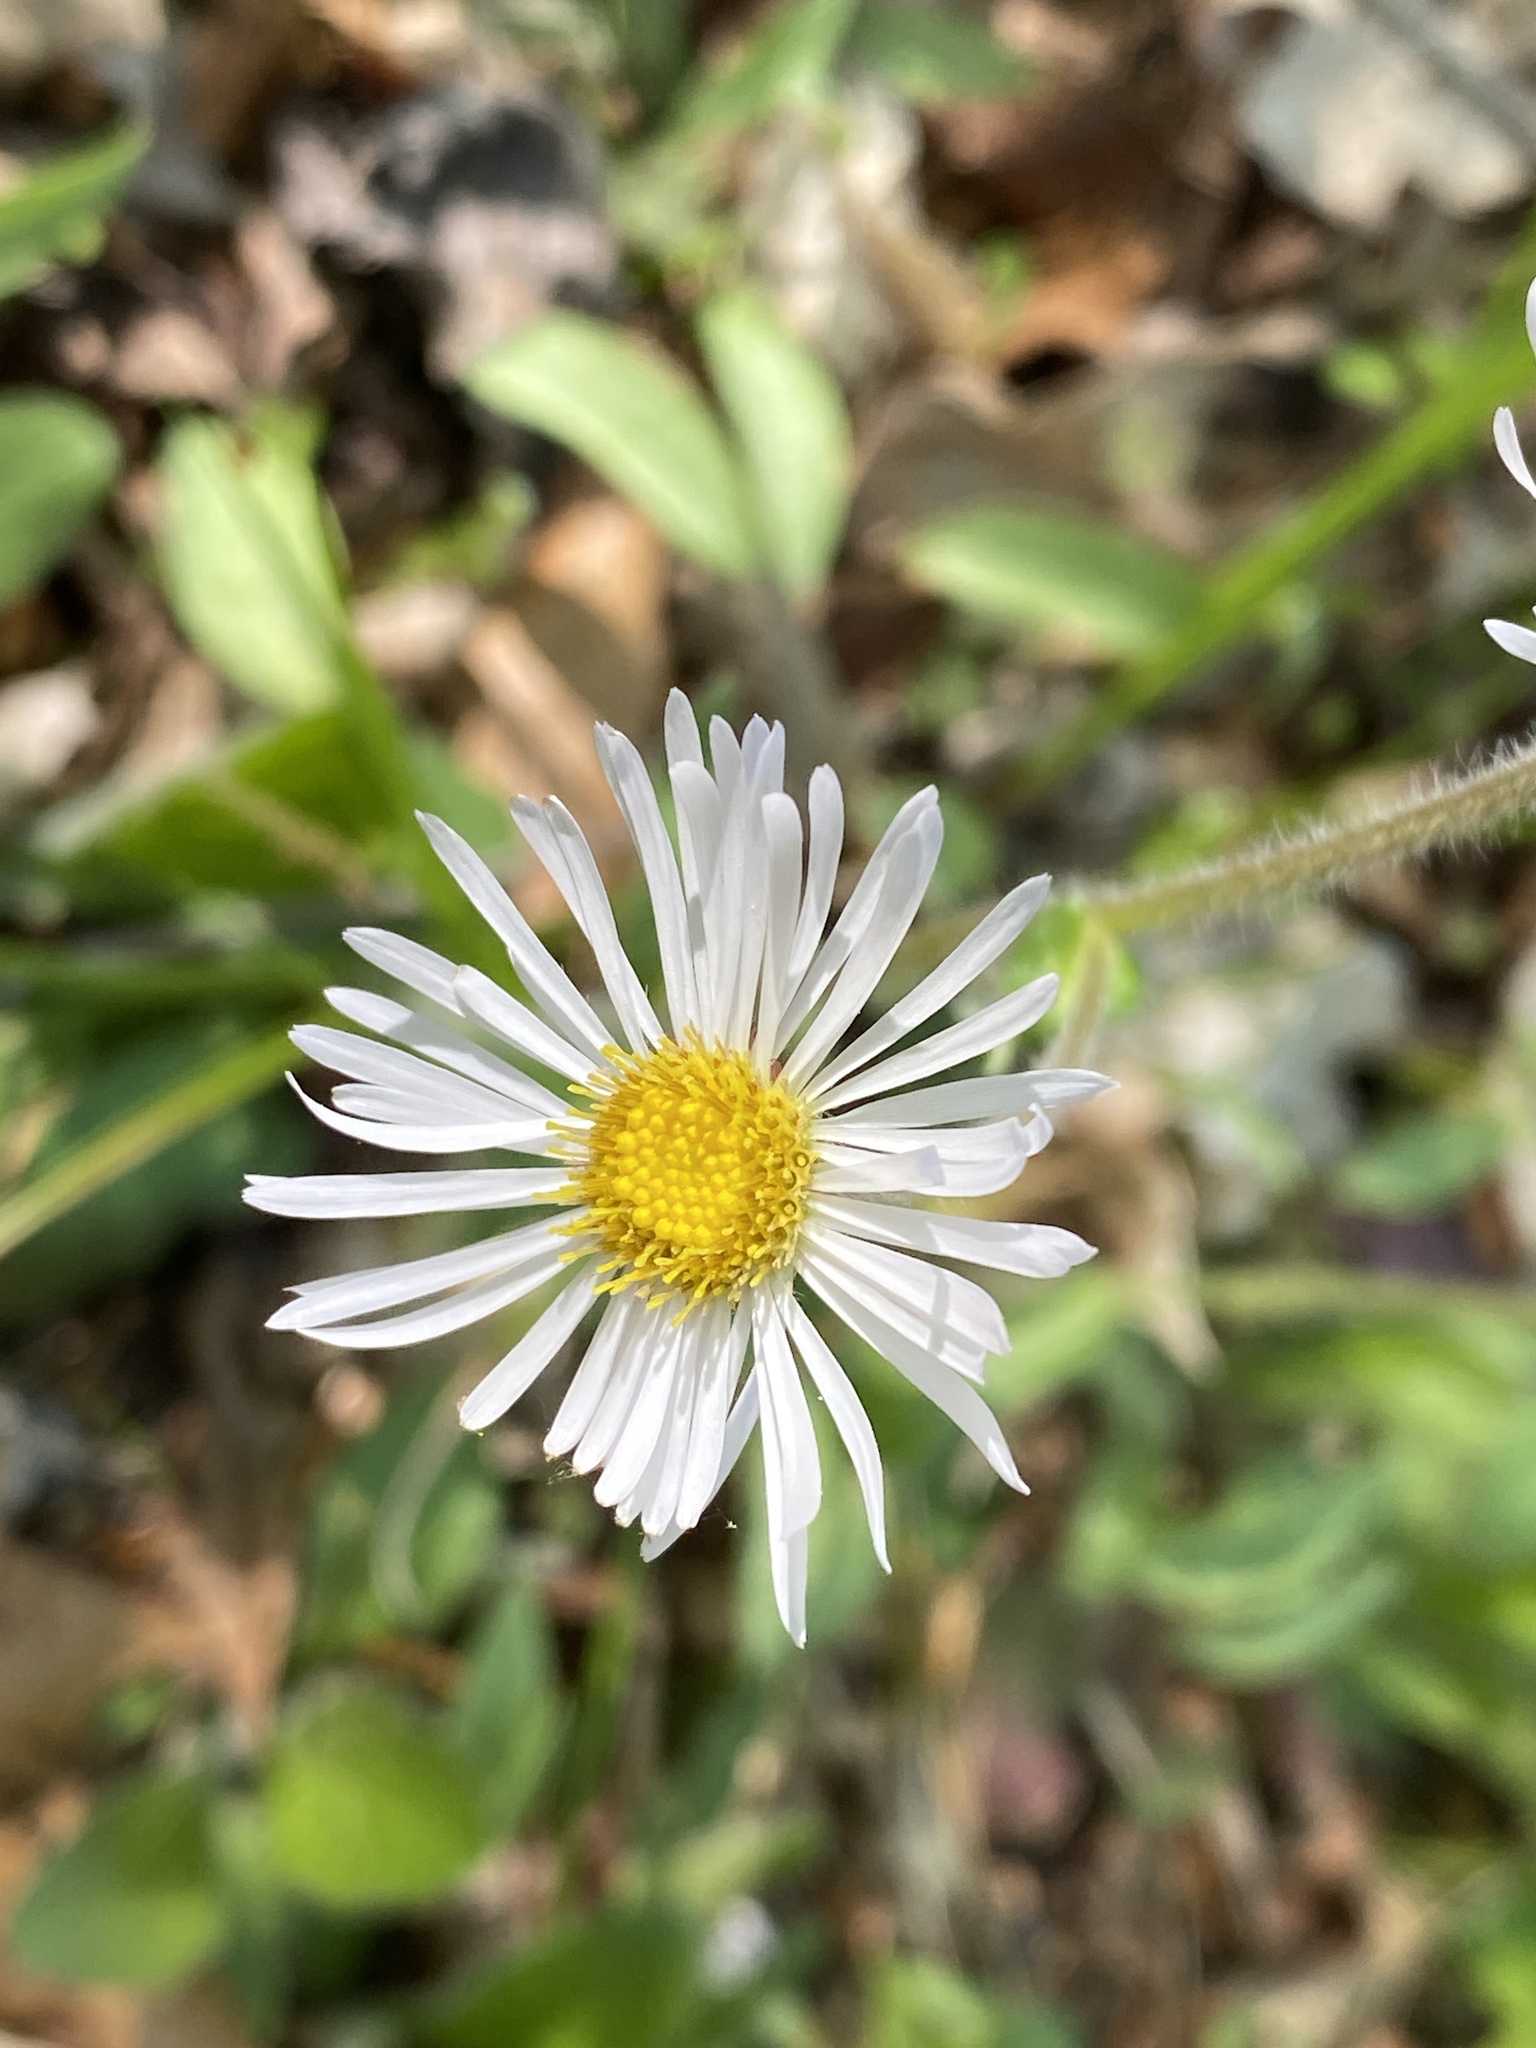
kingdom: Plantae
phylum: Tracheophyta
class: Magnoliopsida
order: Asterales
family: Asteraceae
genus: Erigeron
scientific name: Erigeron pulchellus
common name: Hairy fleabane
